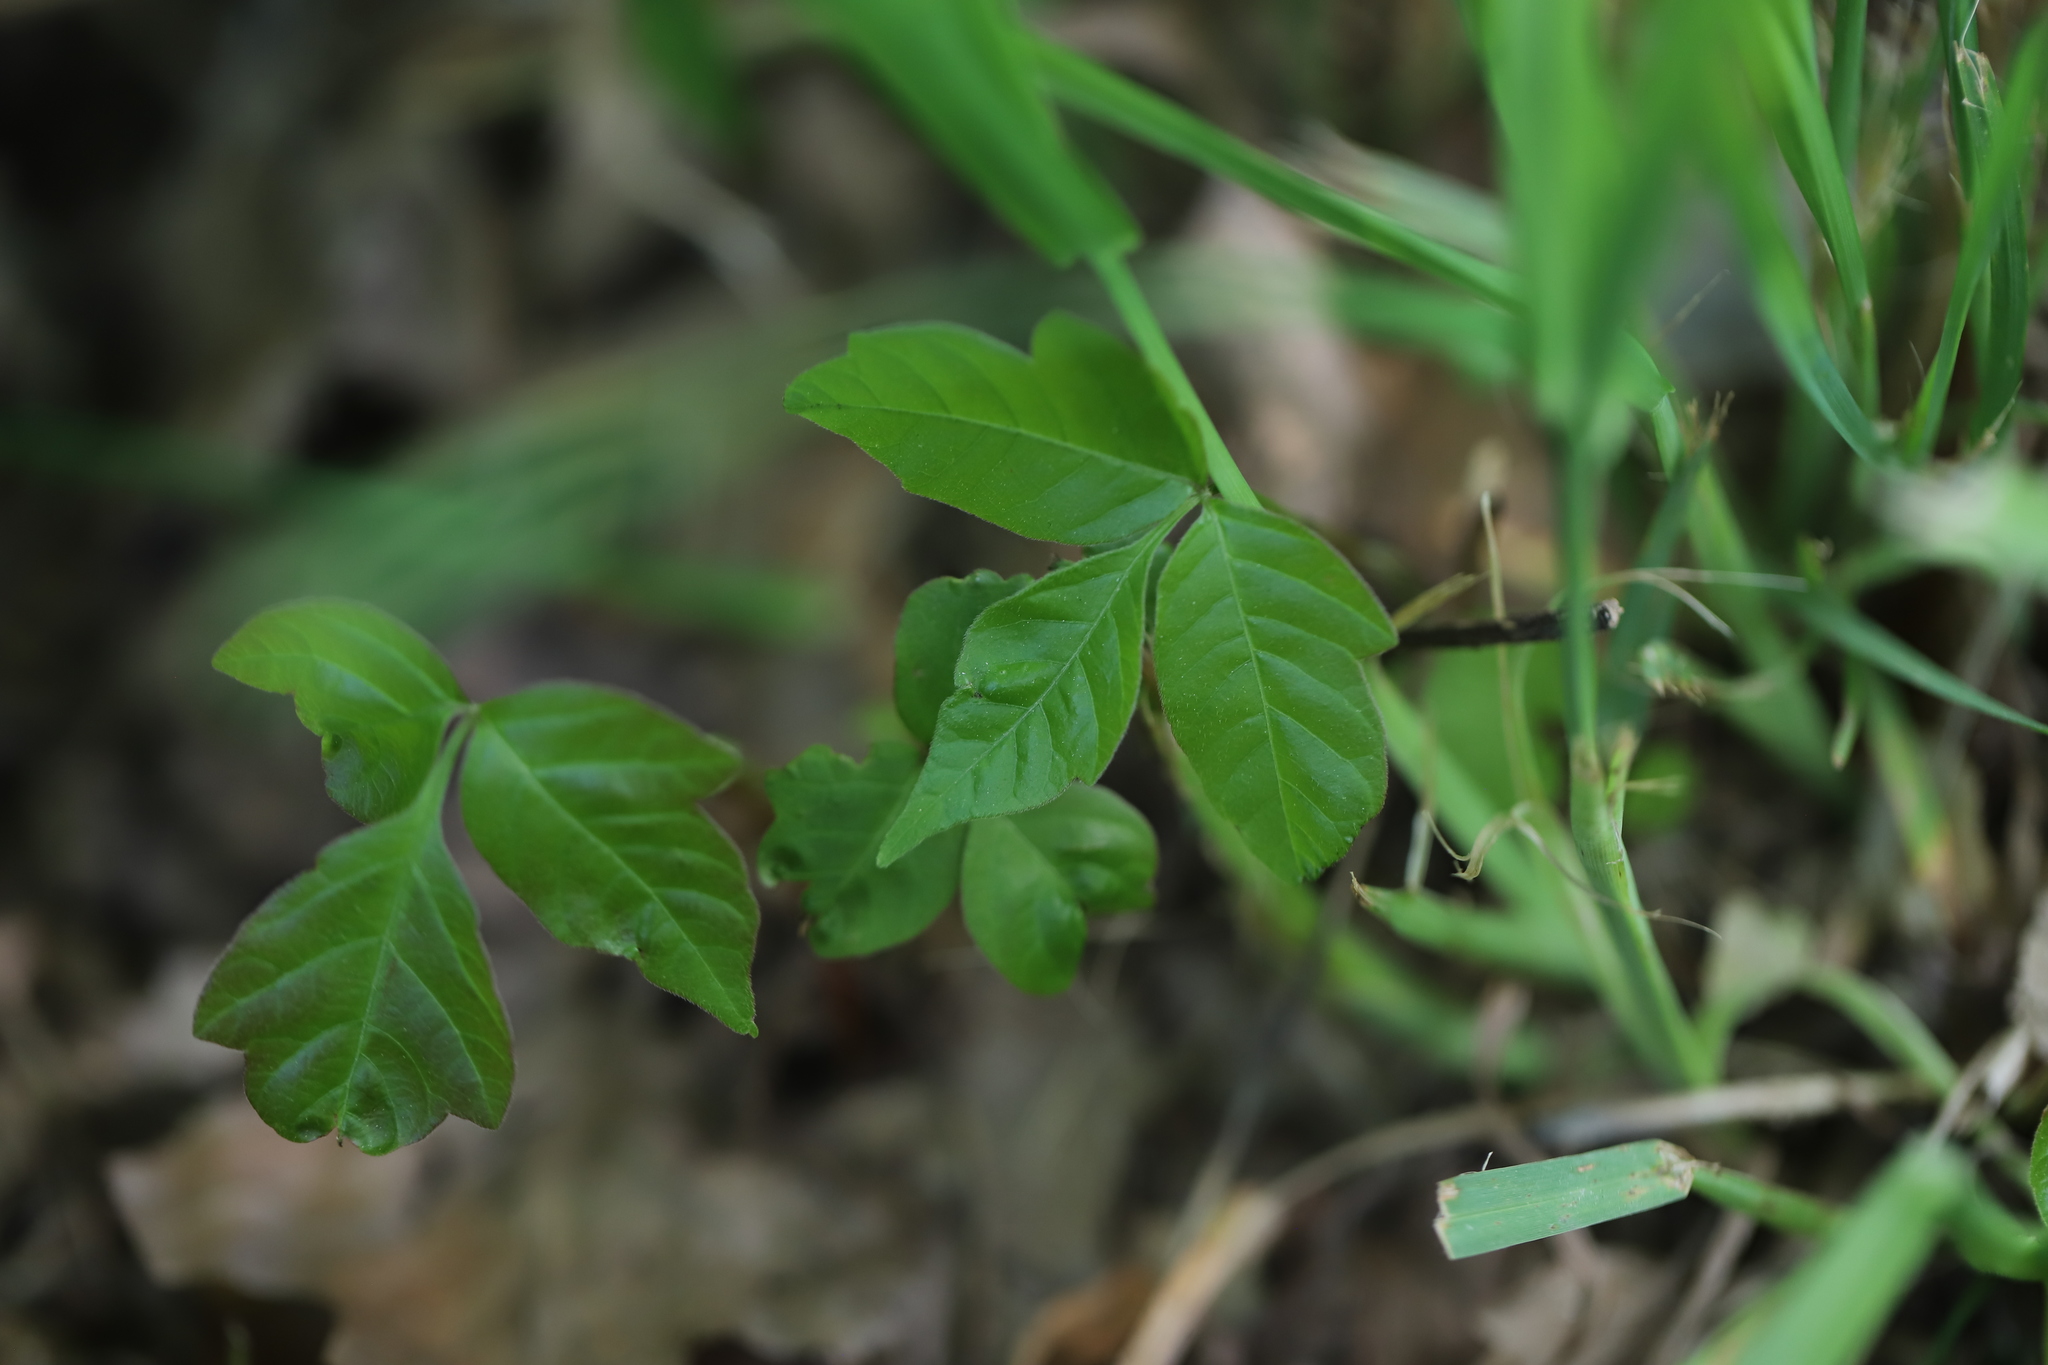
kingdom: Plantae
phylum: Tracheophyta
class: Magnoliopsida
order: Sapindales
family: Anacardiaceae
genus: Toxicodendron
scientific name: Toxicodendron radicans
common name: Poison ivy
